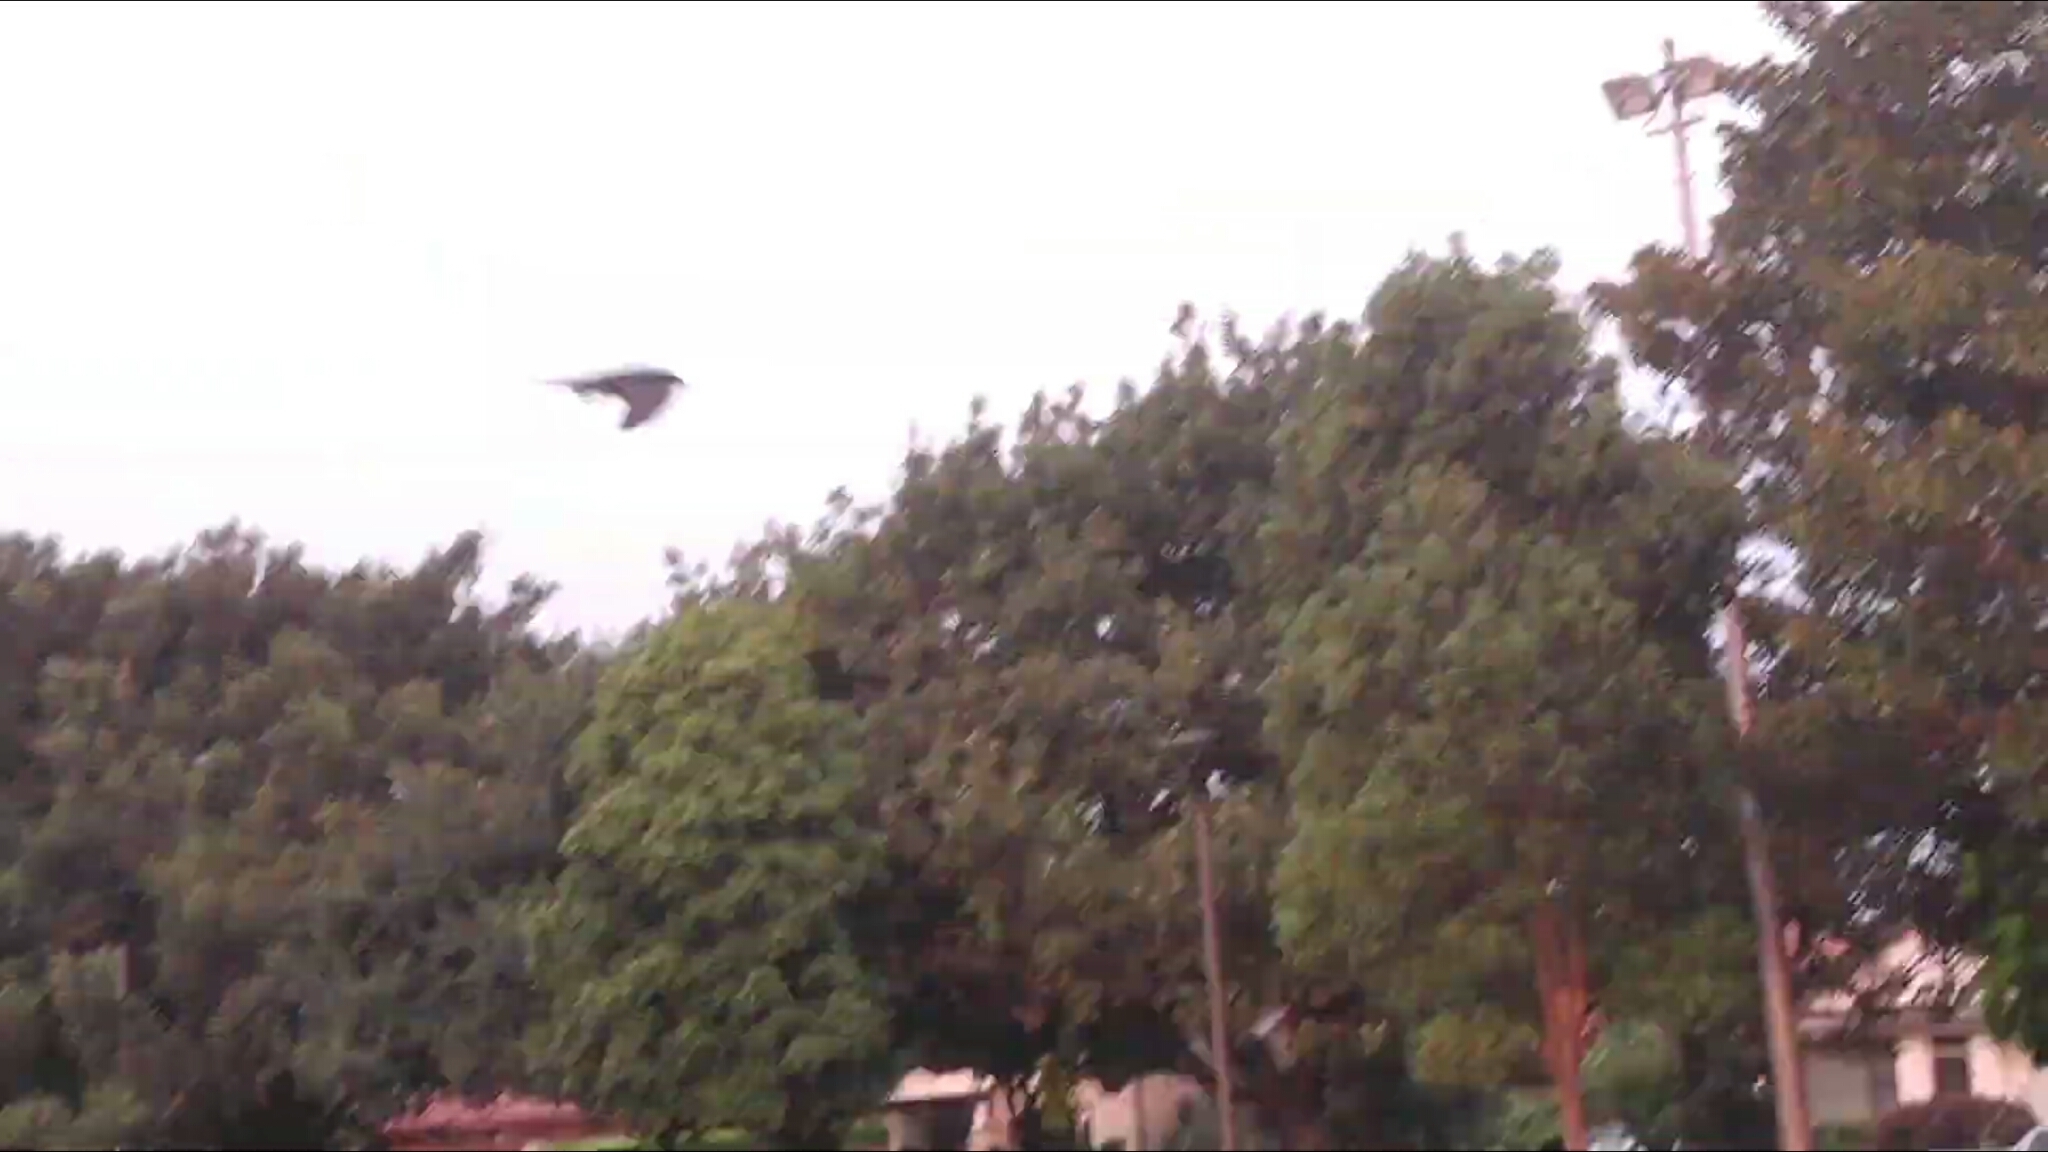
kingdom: Animalia
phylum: Chordata
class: Aves
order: Passeriformes
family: Hirundinidae
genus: Hirundo
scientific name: Hirundo neoxena
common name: Welcome swallow
